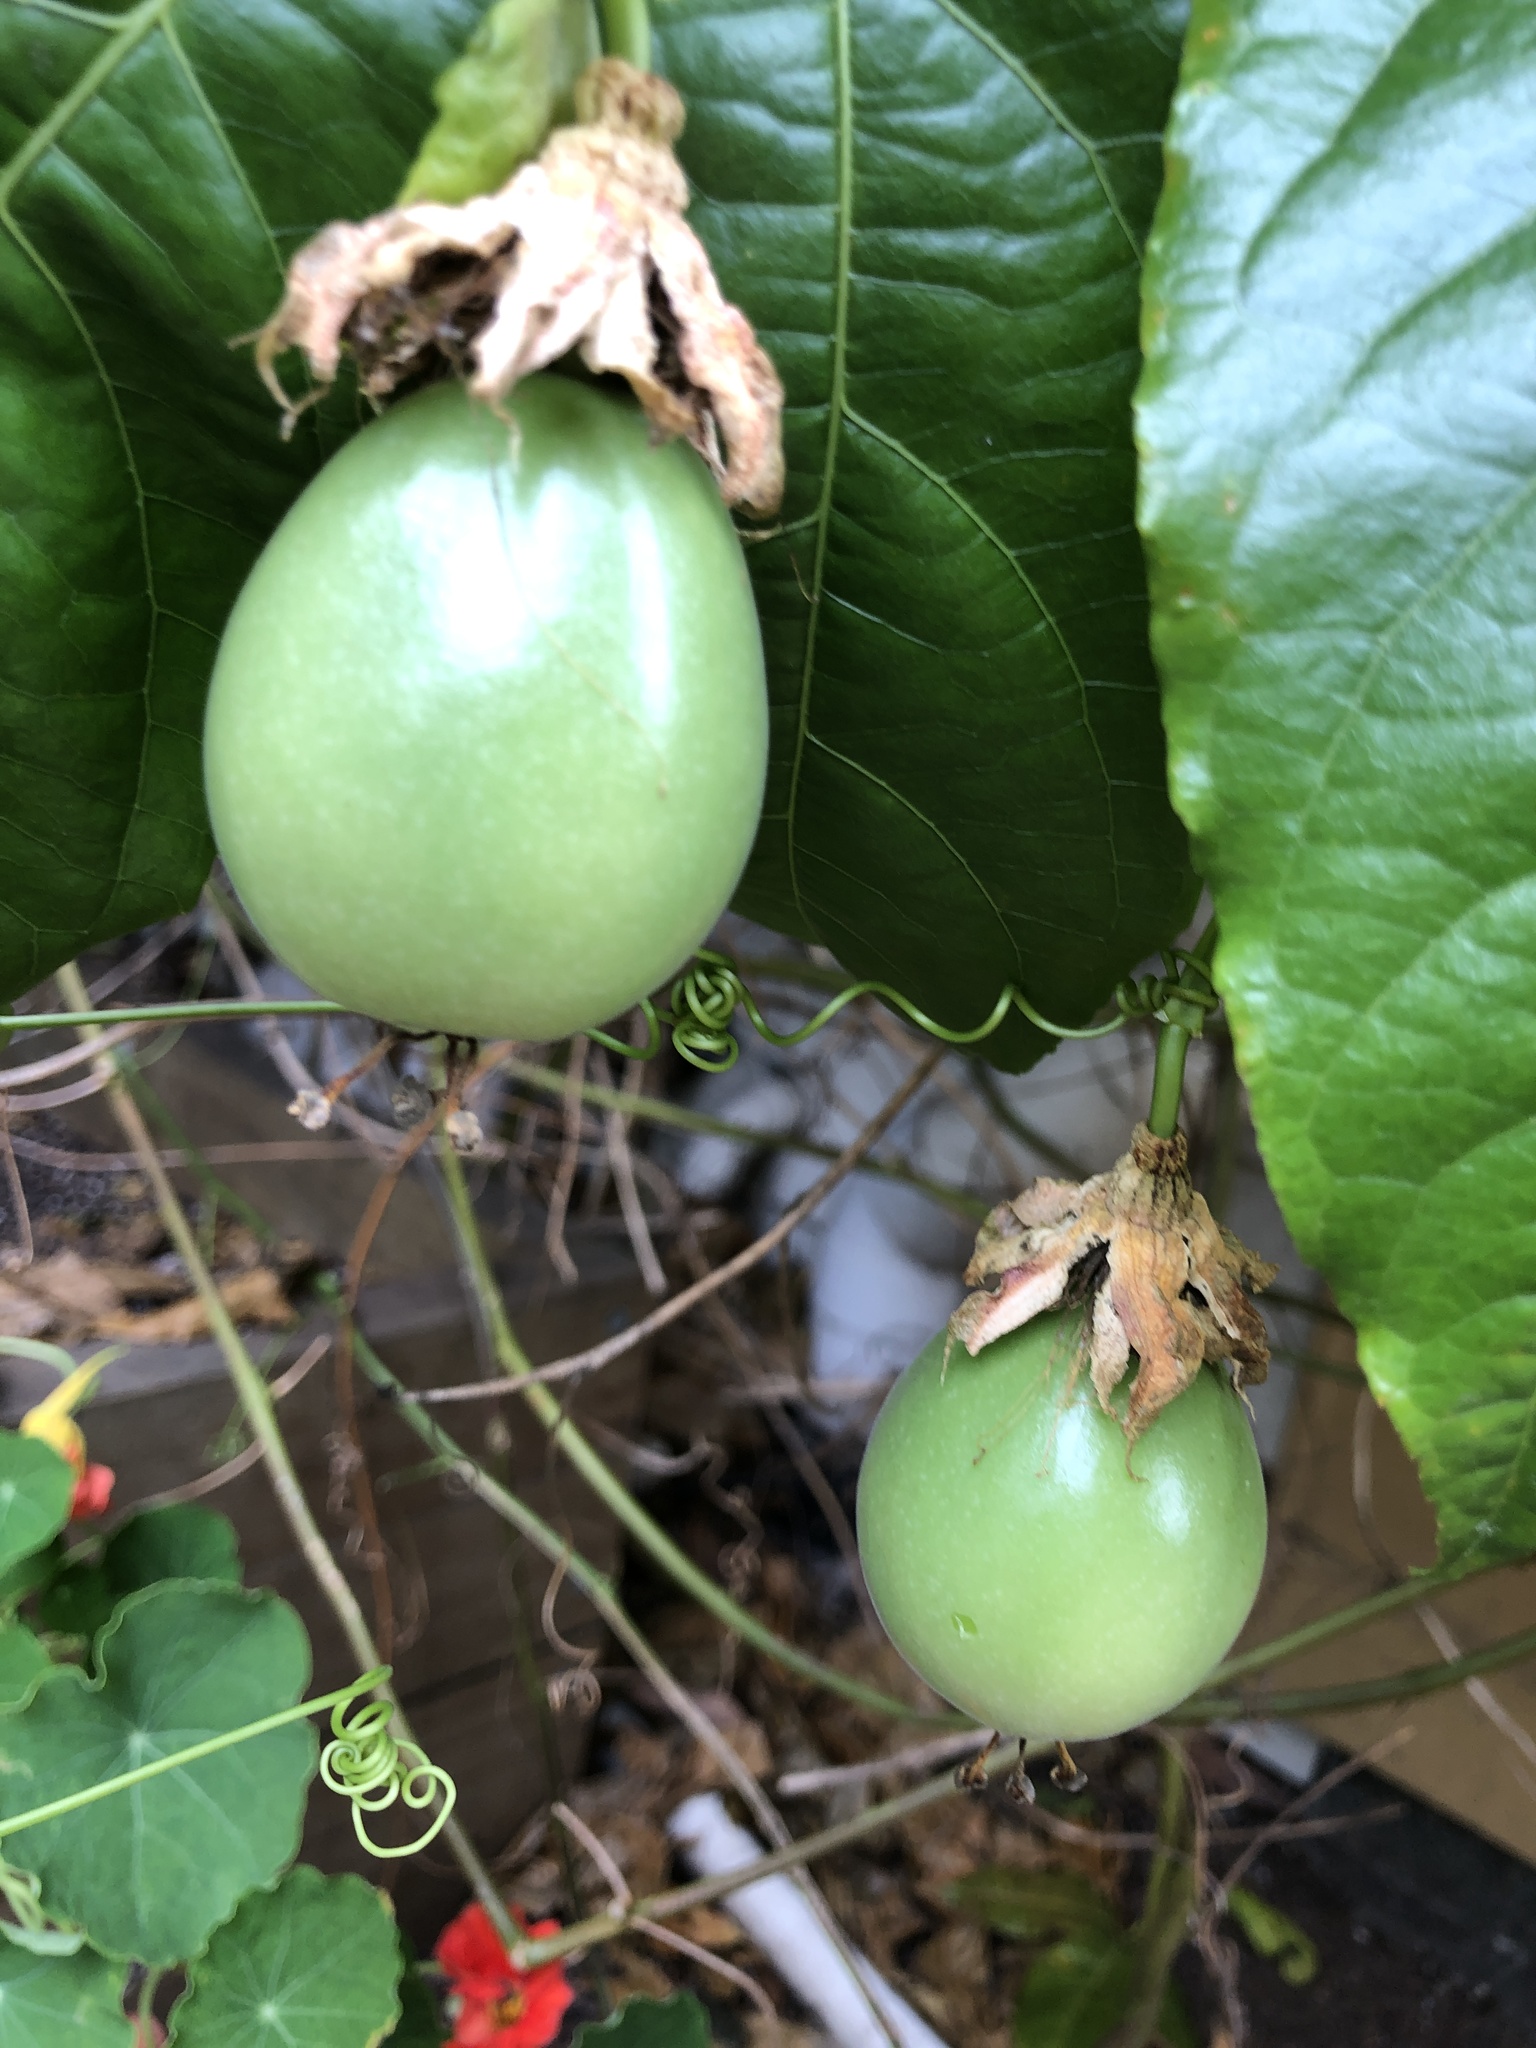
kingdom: Plantae
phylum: Tracheophyta
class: Magnoliopsida
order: Malpighiales
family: Passifloraceae
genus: Passiflora
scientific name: Passiflora edulis
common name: Purple granadilla
